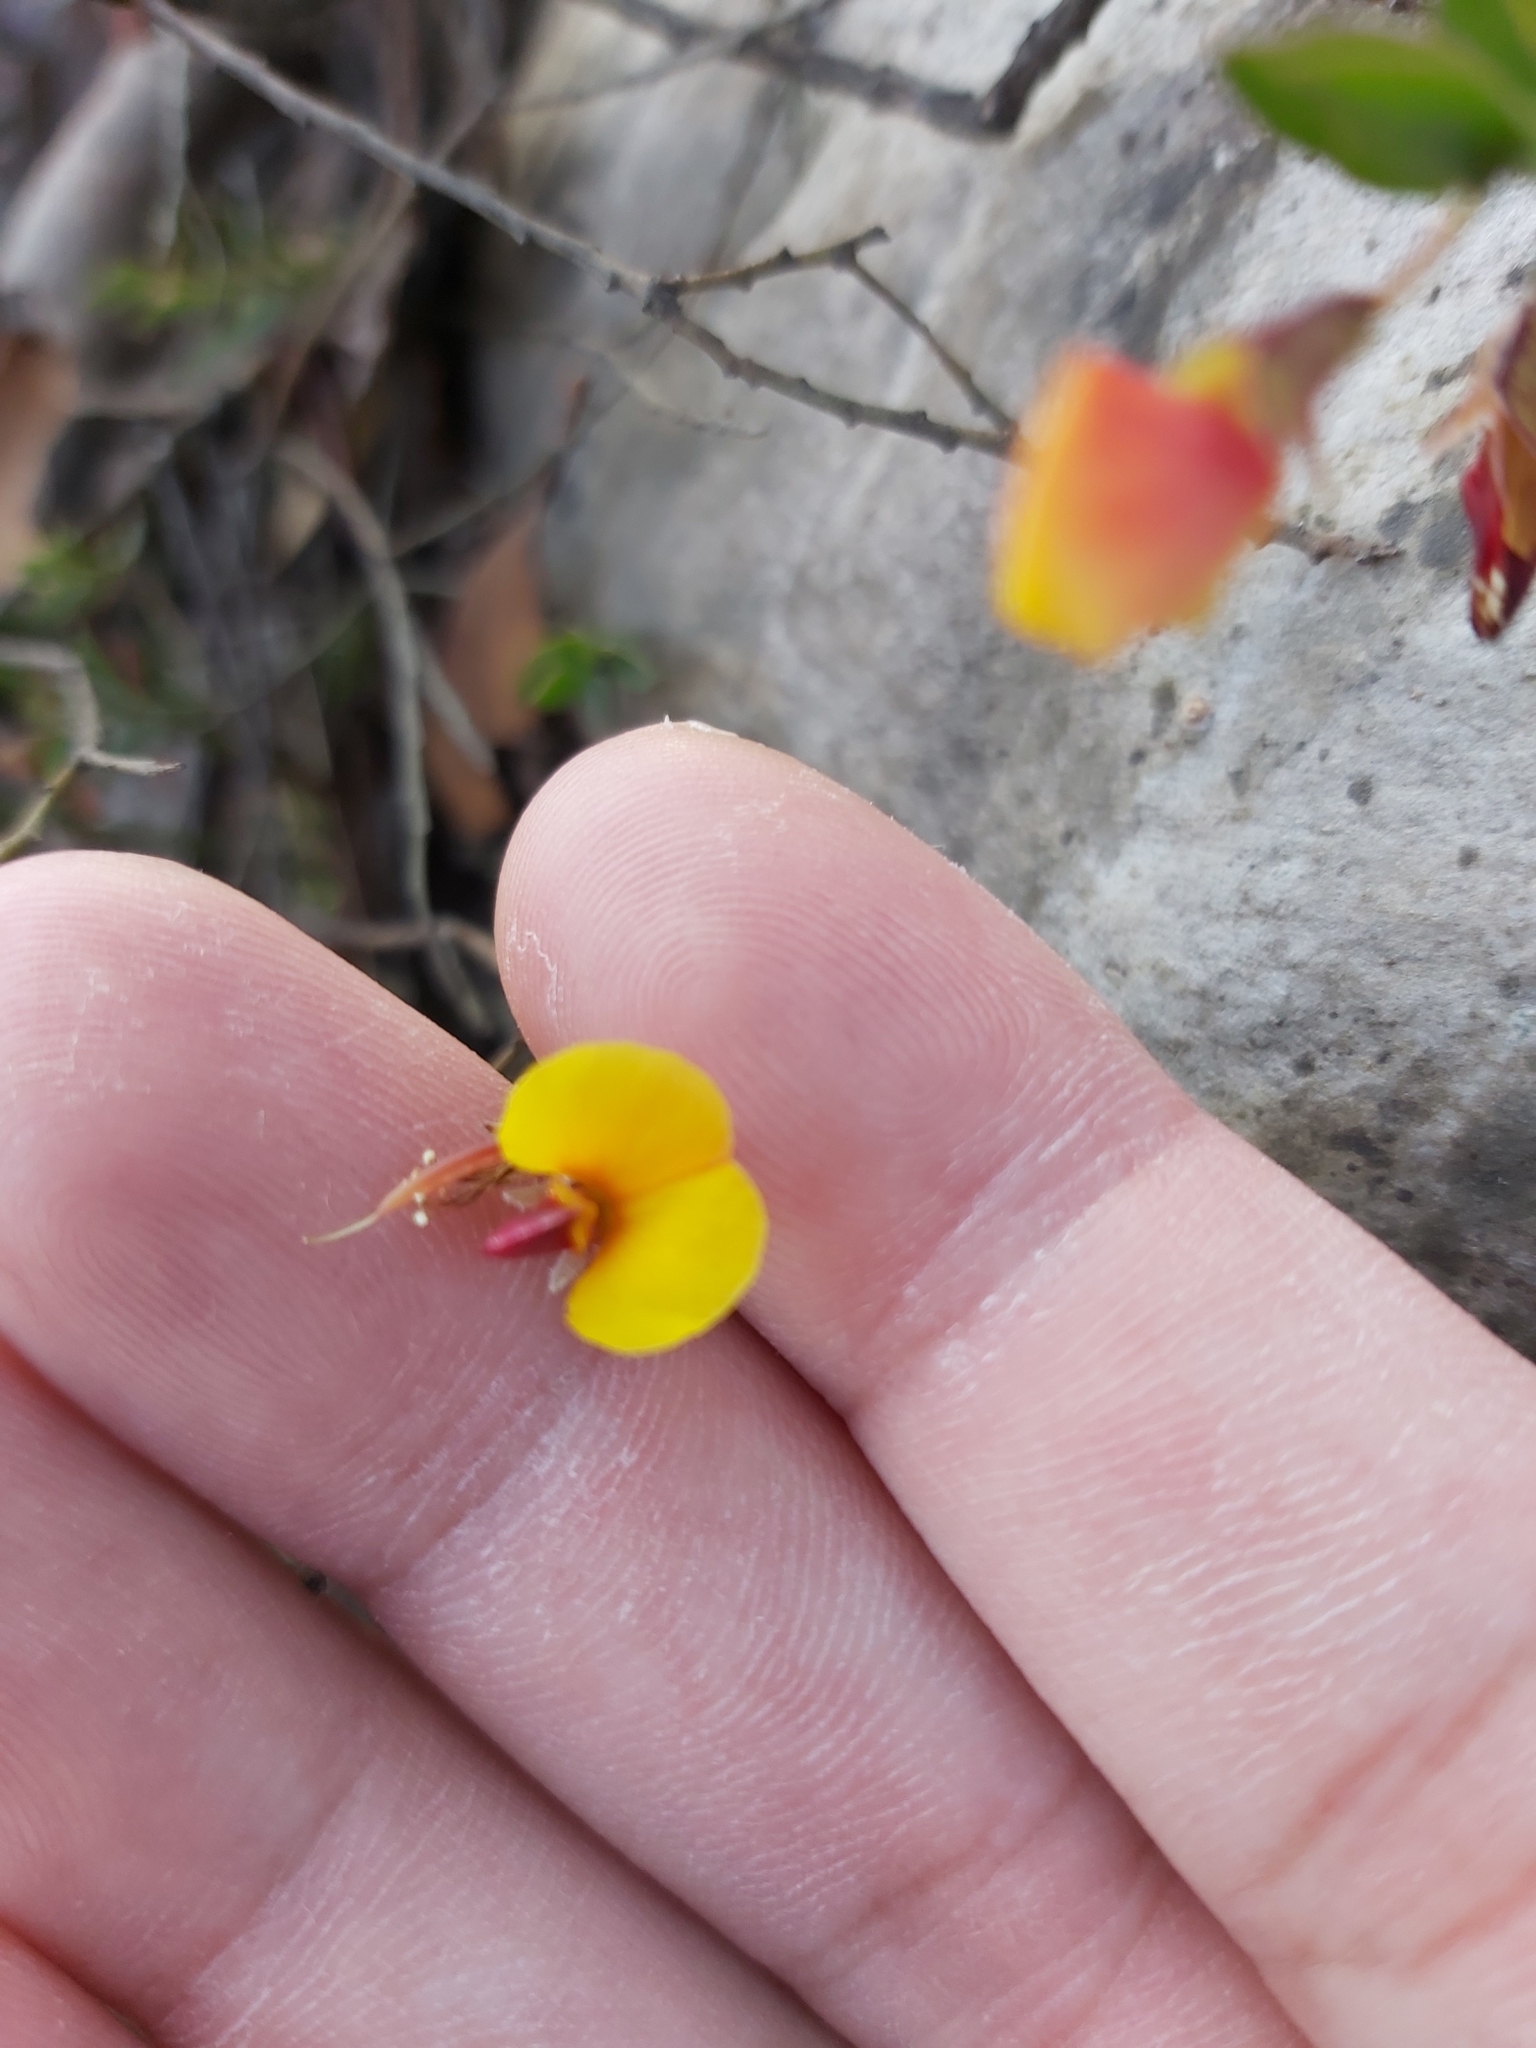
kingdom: Plantae
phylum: Tracheophyta
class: Magnoliopsida
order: Fabales
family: Fabaceae
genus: Bossiaea
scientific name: Bossiaea heterophylla
